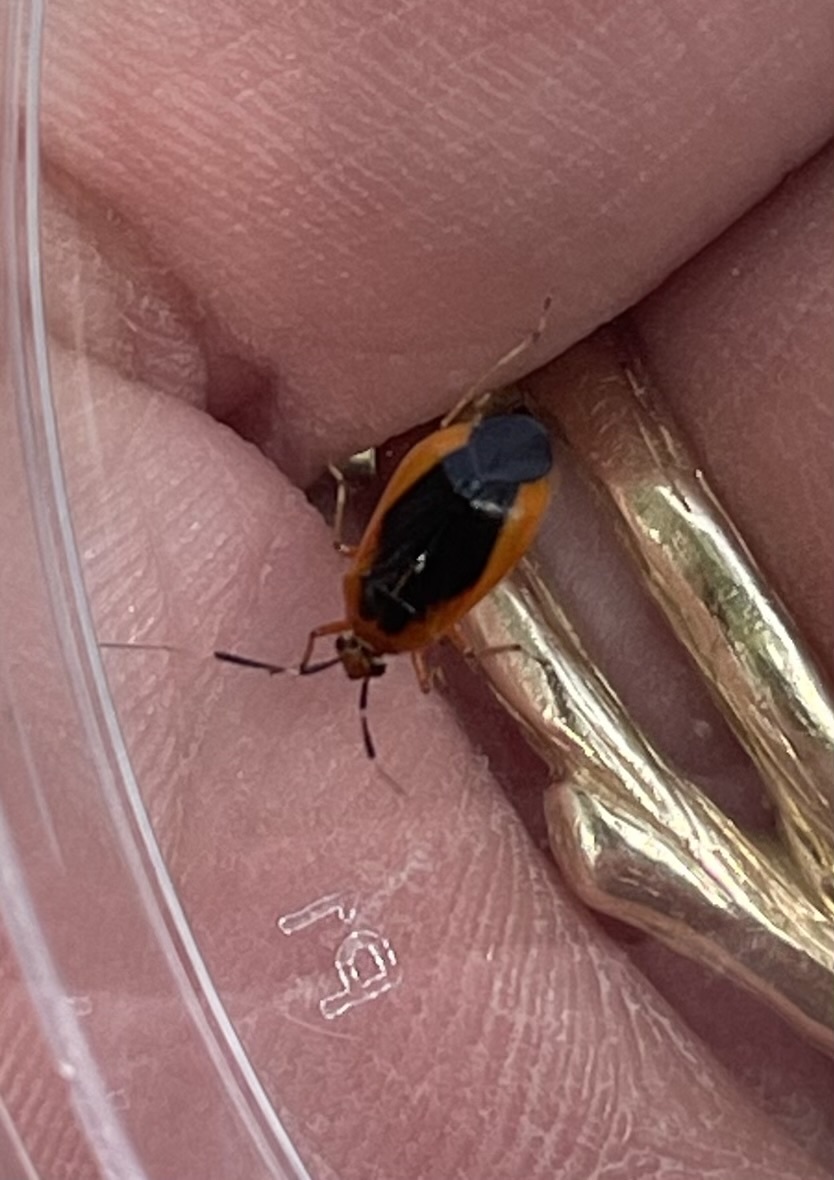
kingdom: Animalia
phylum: Arthropoda
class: Insecta
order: Hemiptera
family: Miridae
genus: Metriorrhynchomiris
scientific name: Metriorrhynchomiris dislocatus
